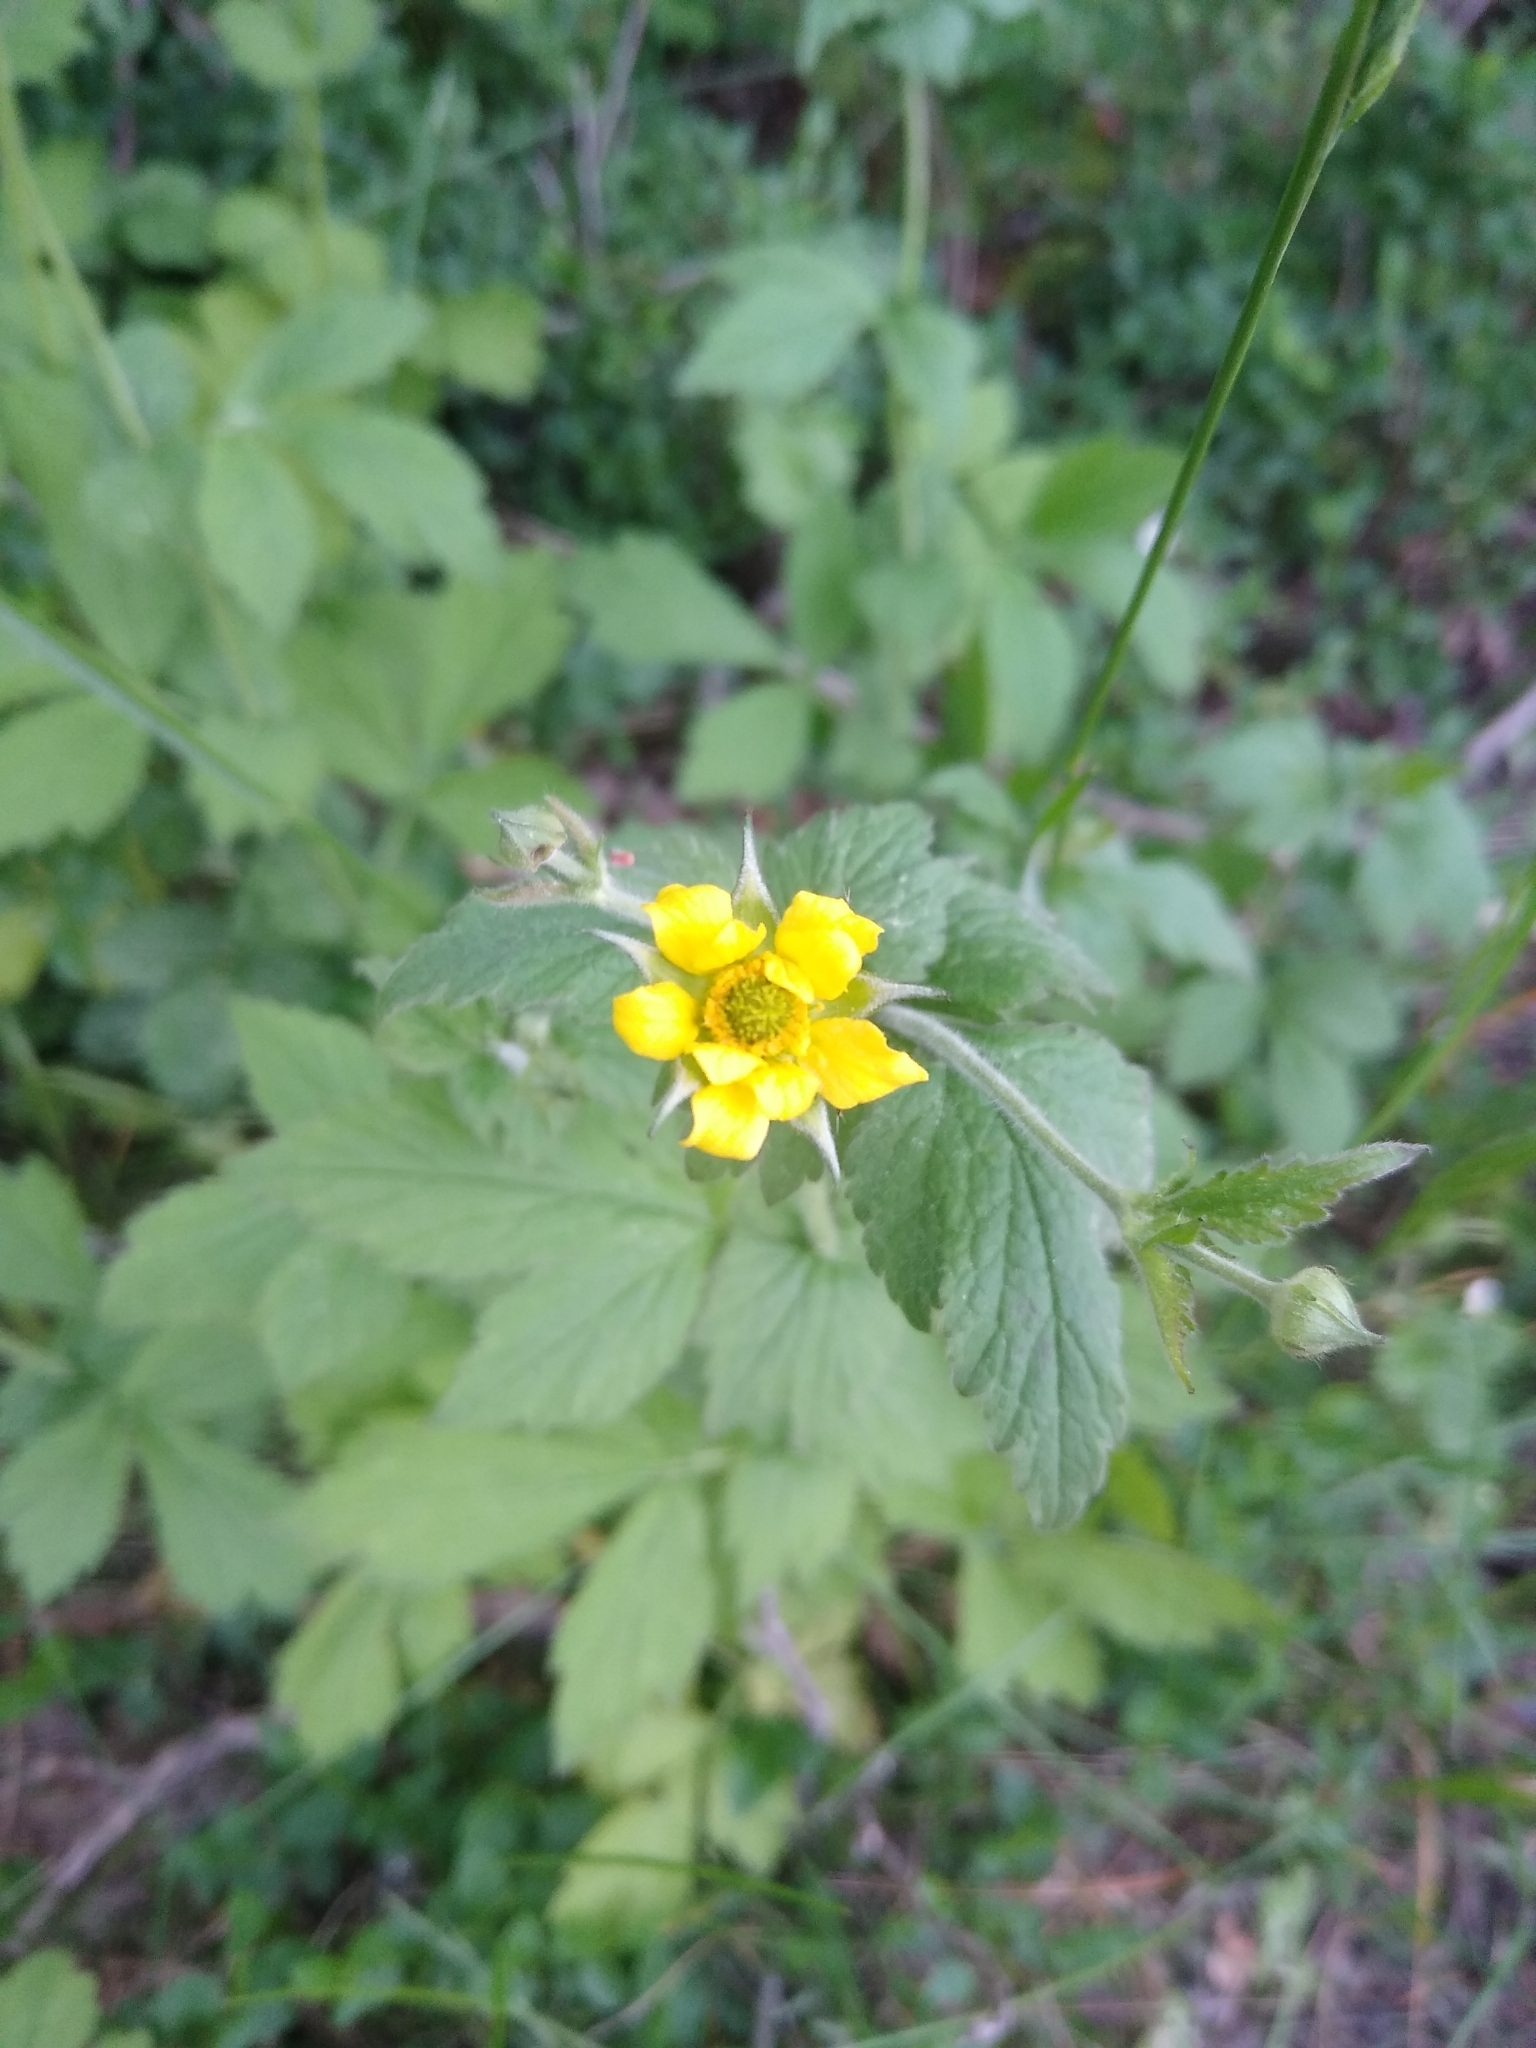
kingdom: Plantae
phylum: Tracheophyta
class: Magnoliopsida
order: Rosales
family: Rosaceae
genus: Geum
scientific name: Geum urbanum
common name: Wood avens
